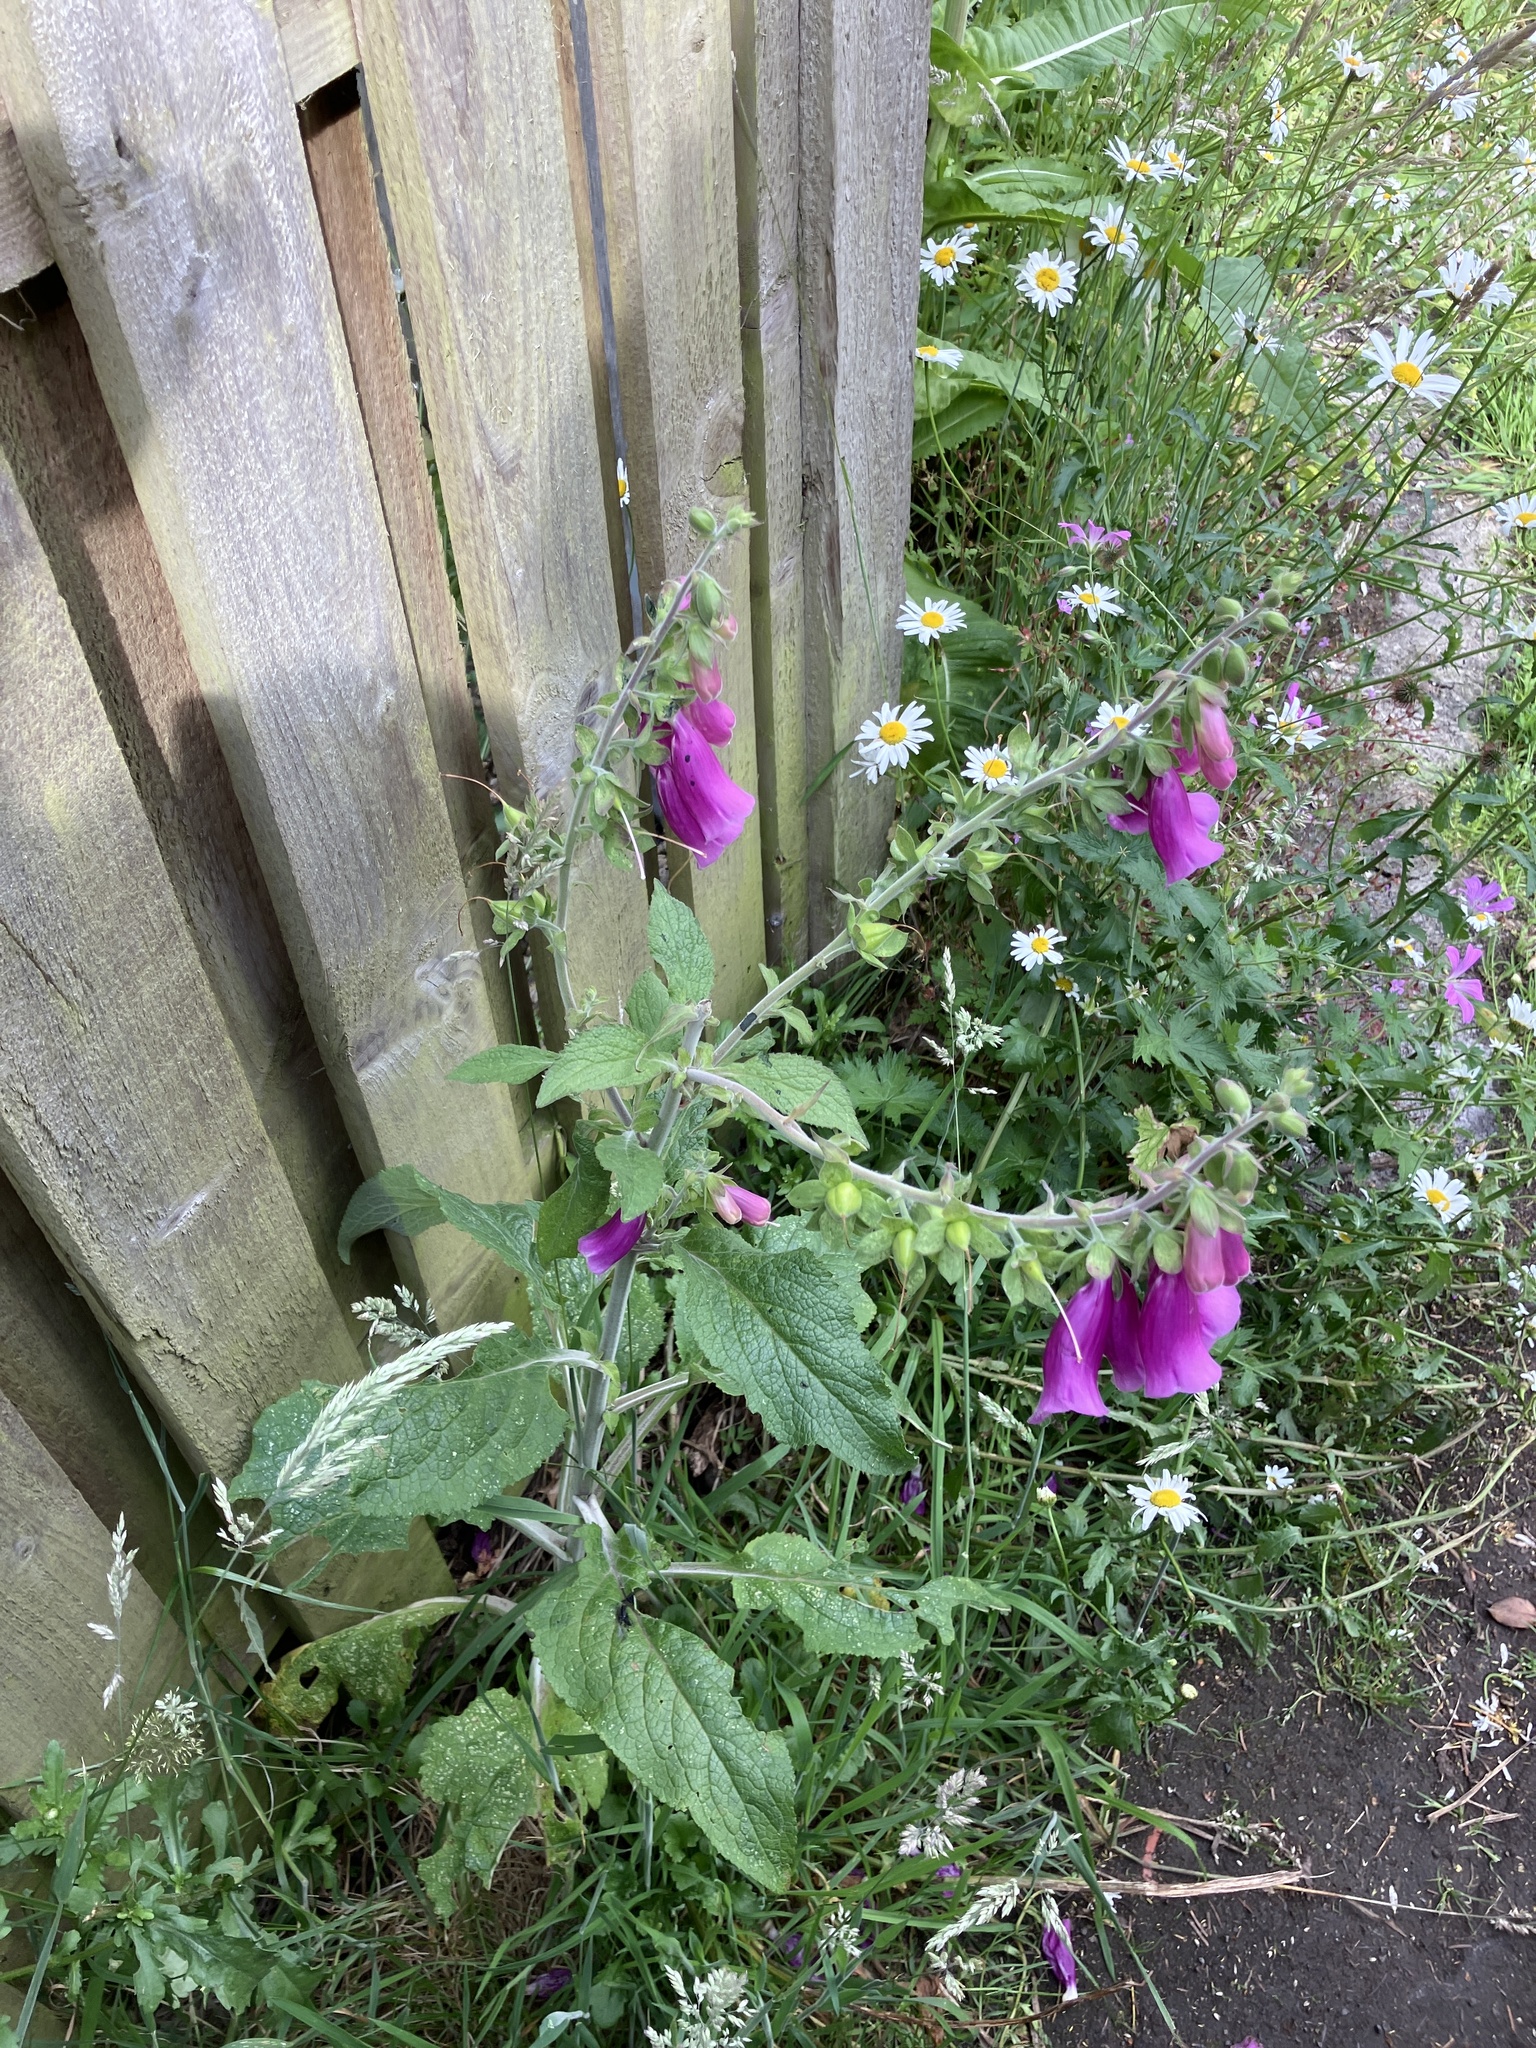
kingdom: Plantae
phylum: Tracheophyta
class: Magnoliopsida
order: Lamiales
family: Plantaginaceae
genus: Digitalis
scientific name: Digitalis purpurea
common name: Foxglove
